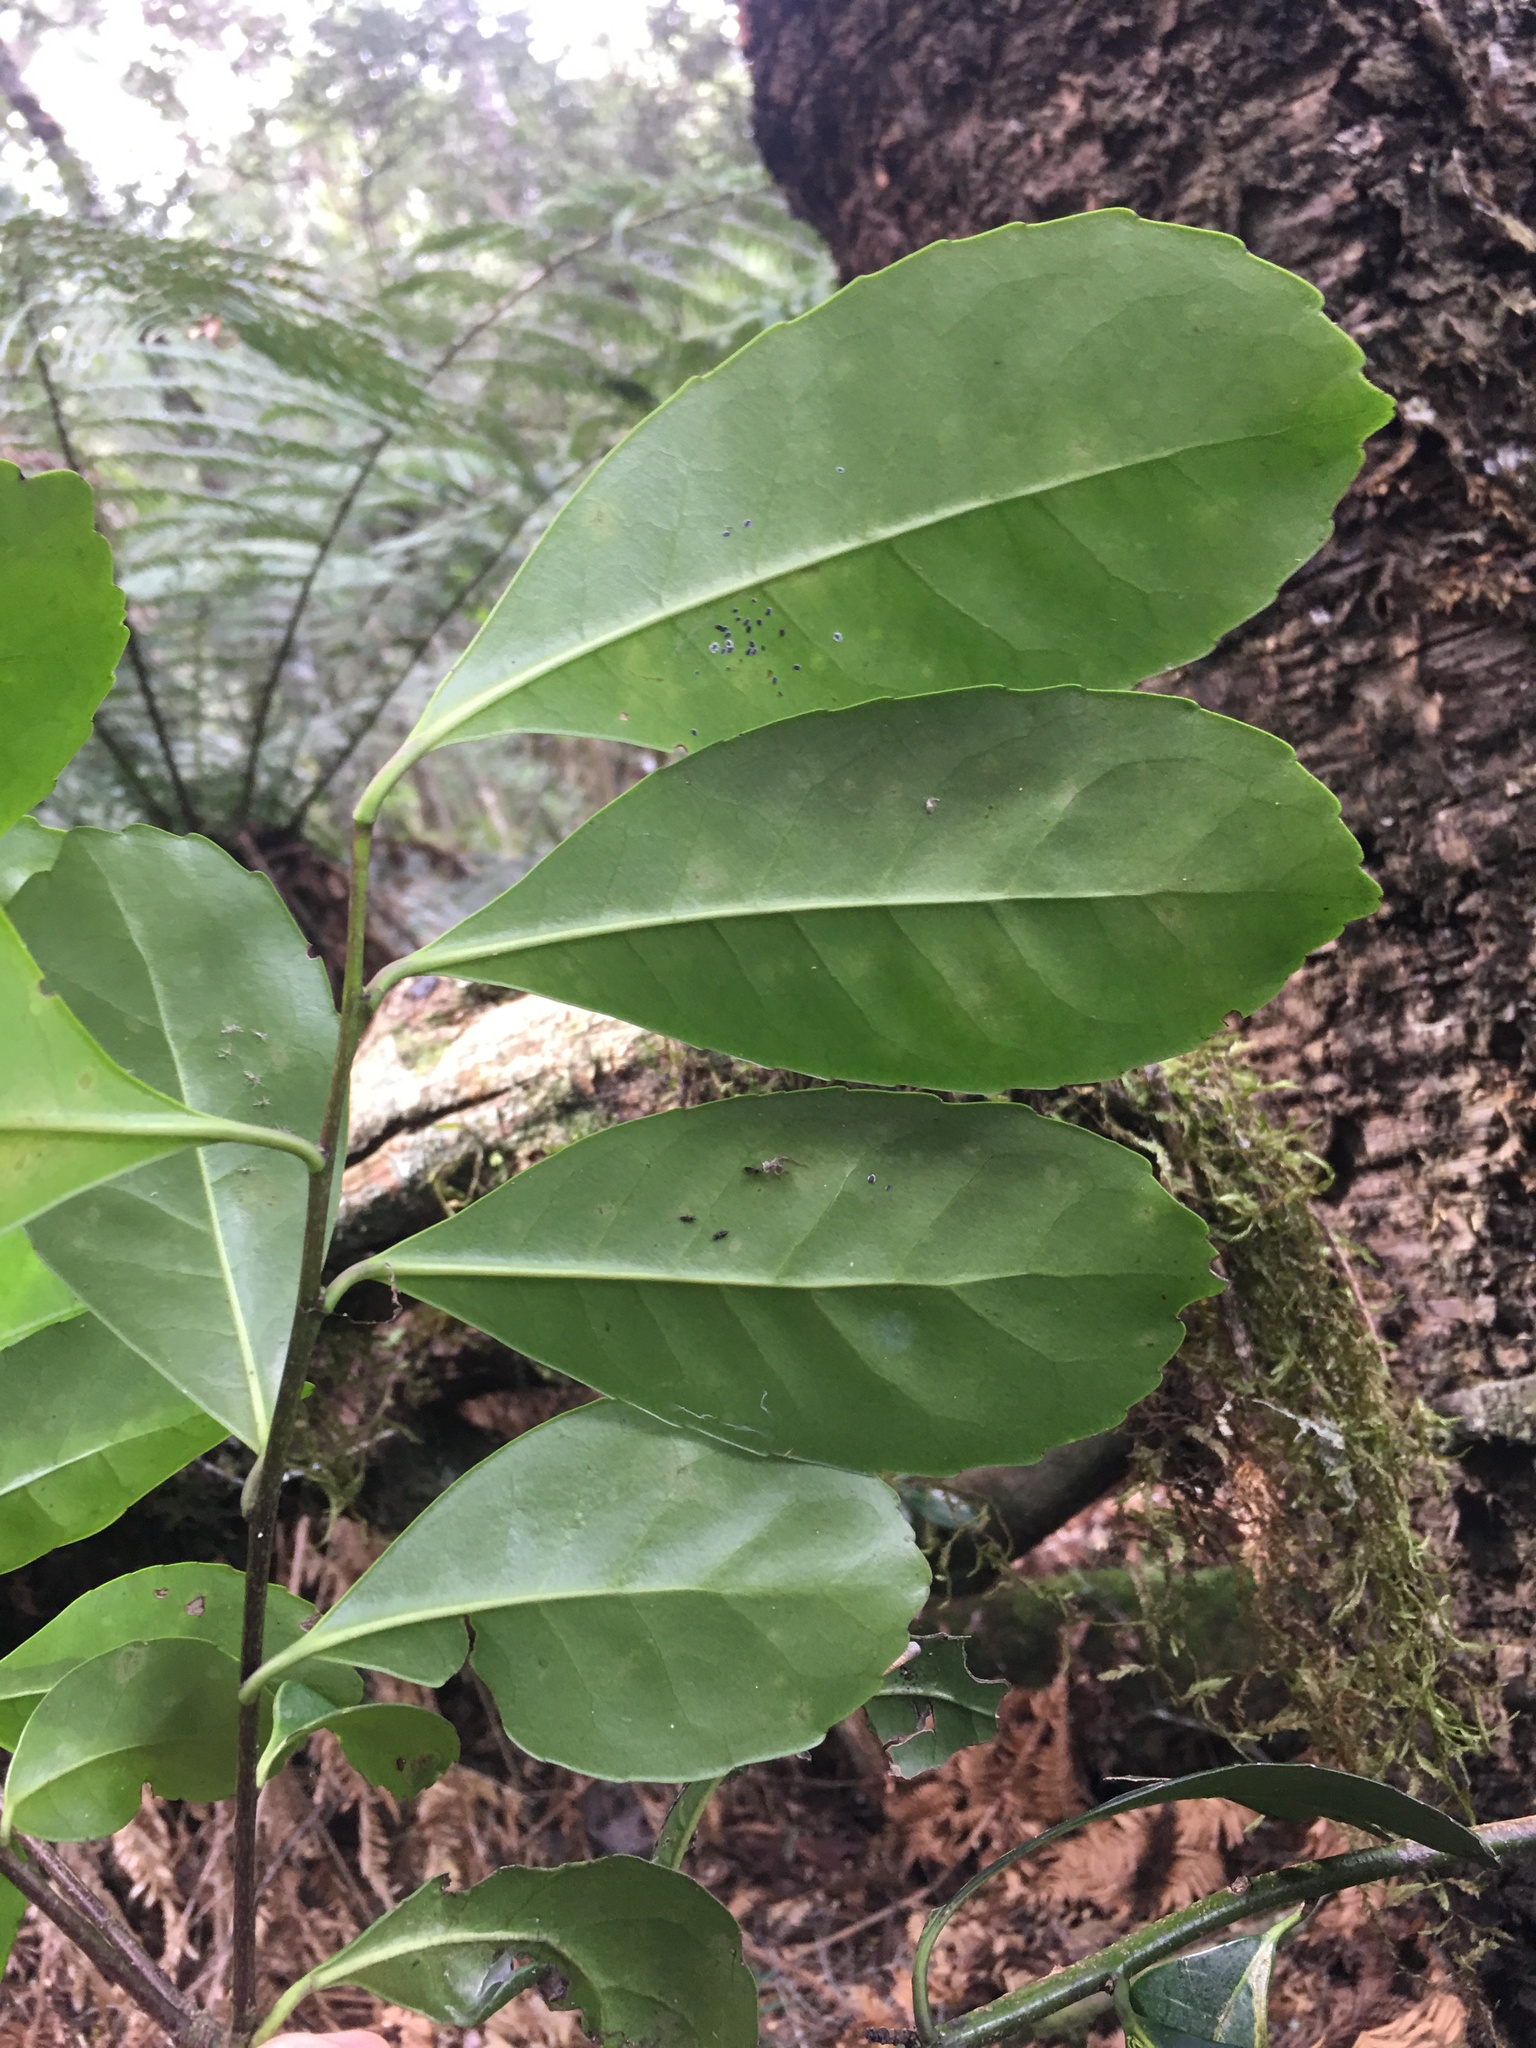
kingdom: Plantae
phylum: Tracheophyta
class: Magnoliopsida
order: Aquifoliales
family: Aquifoliaceae
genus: Ilex
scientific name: Ilex paraguariensis
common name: Paraguay tea
